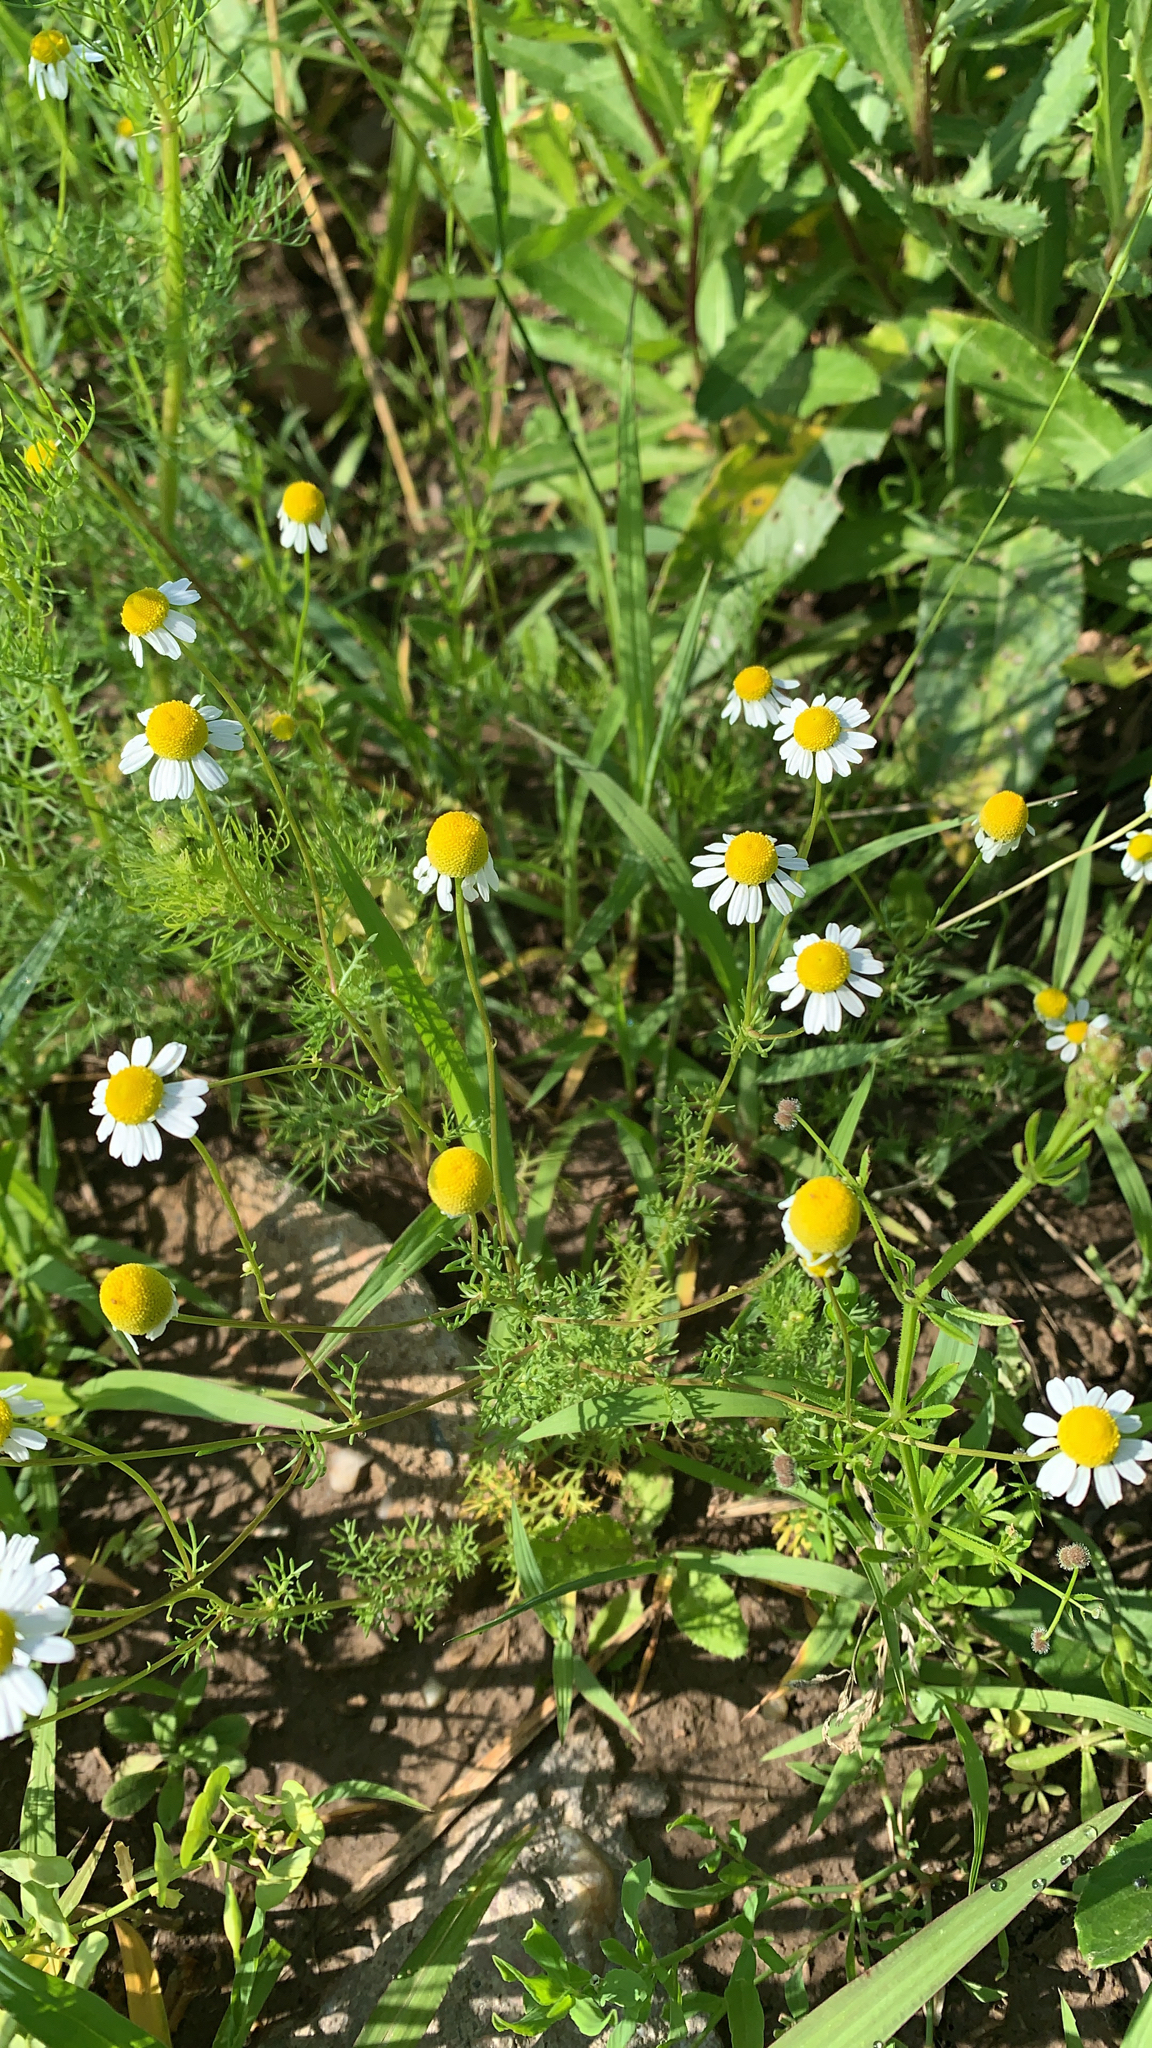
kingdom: Plantae
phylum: Tracheophyta
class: Magnoliopsida
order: Asterales
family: Asteraceae
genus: Matricaria
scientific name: Matricaria chamomilla
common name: Scented mayweed
